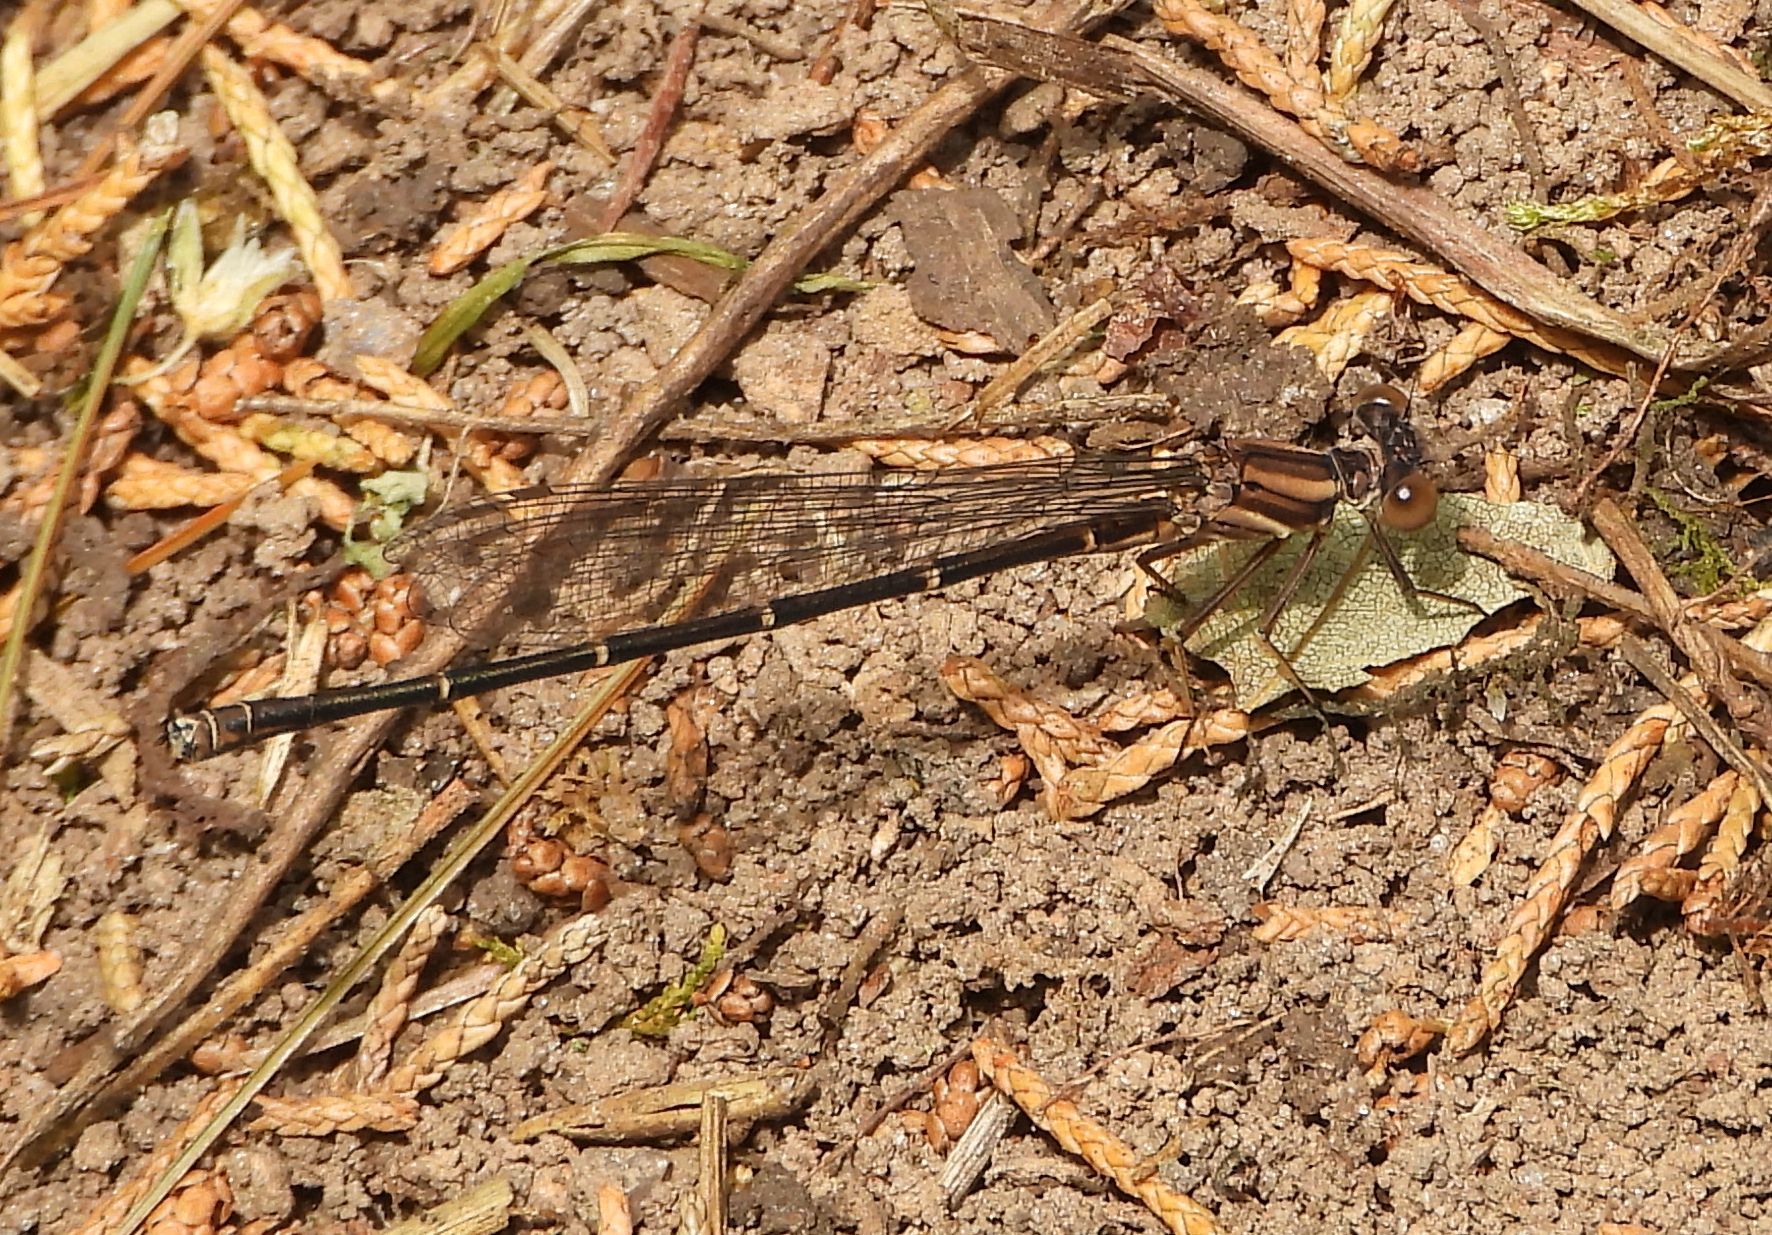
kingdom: Animalia
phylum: Arthropoda
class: Insecta
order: Odonata
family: Coenagrionidae
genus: Argia
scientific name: Argia moesta
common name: Powdered dancer
